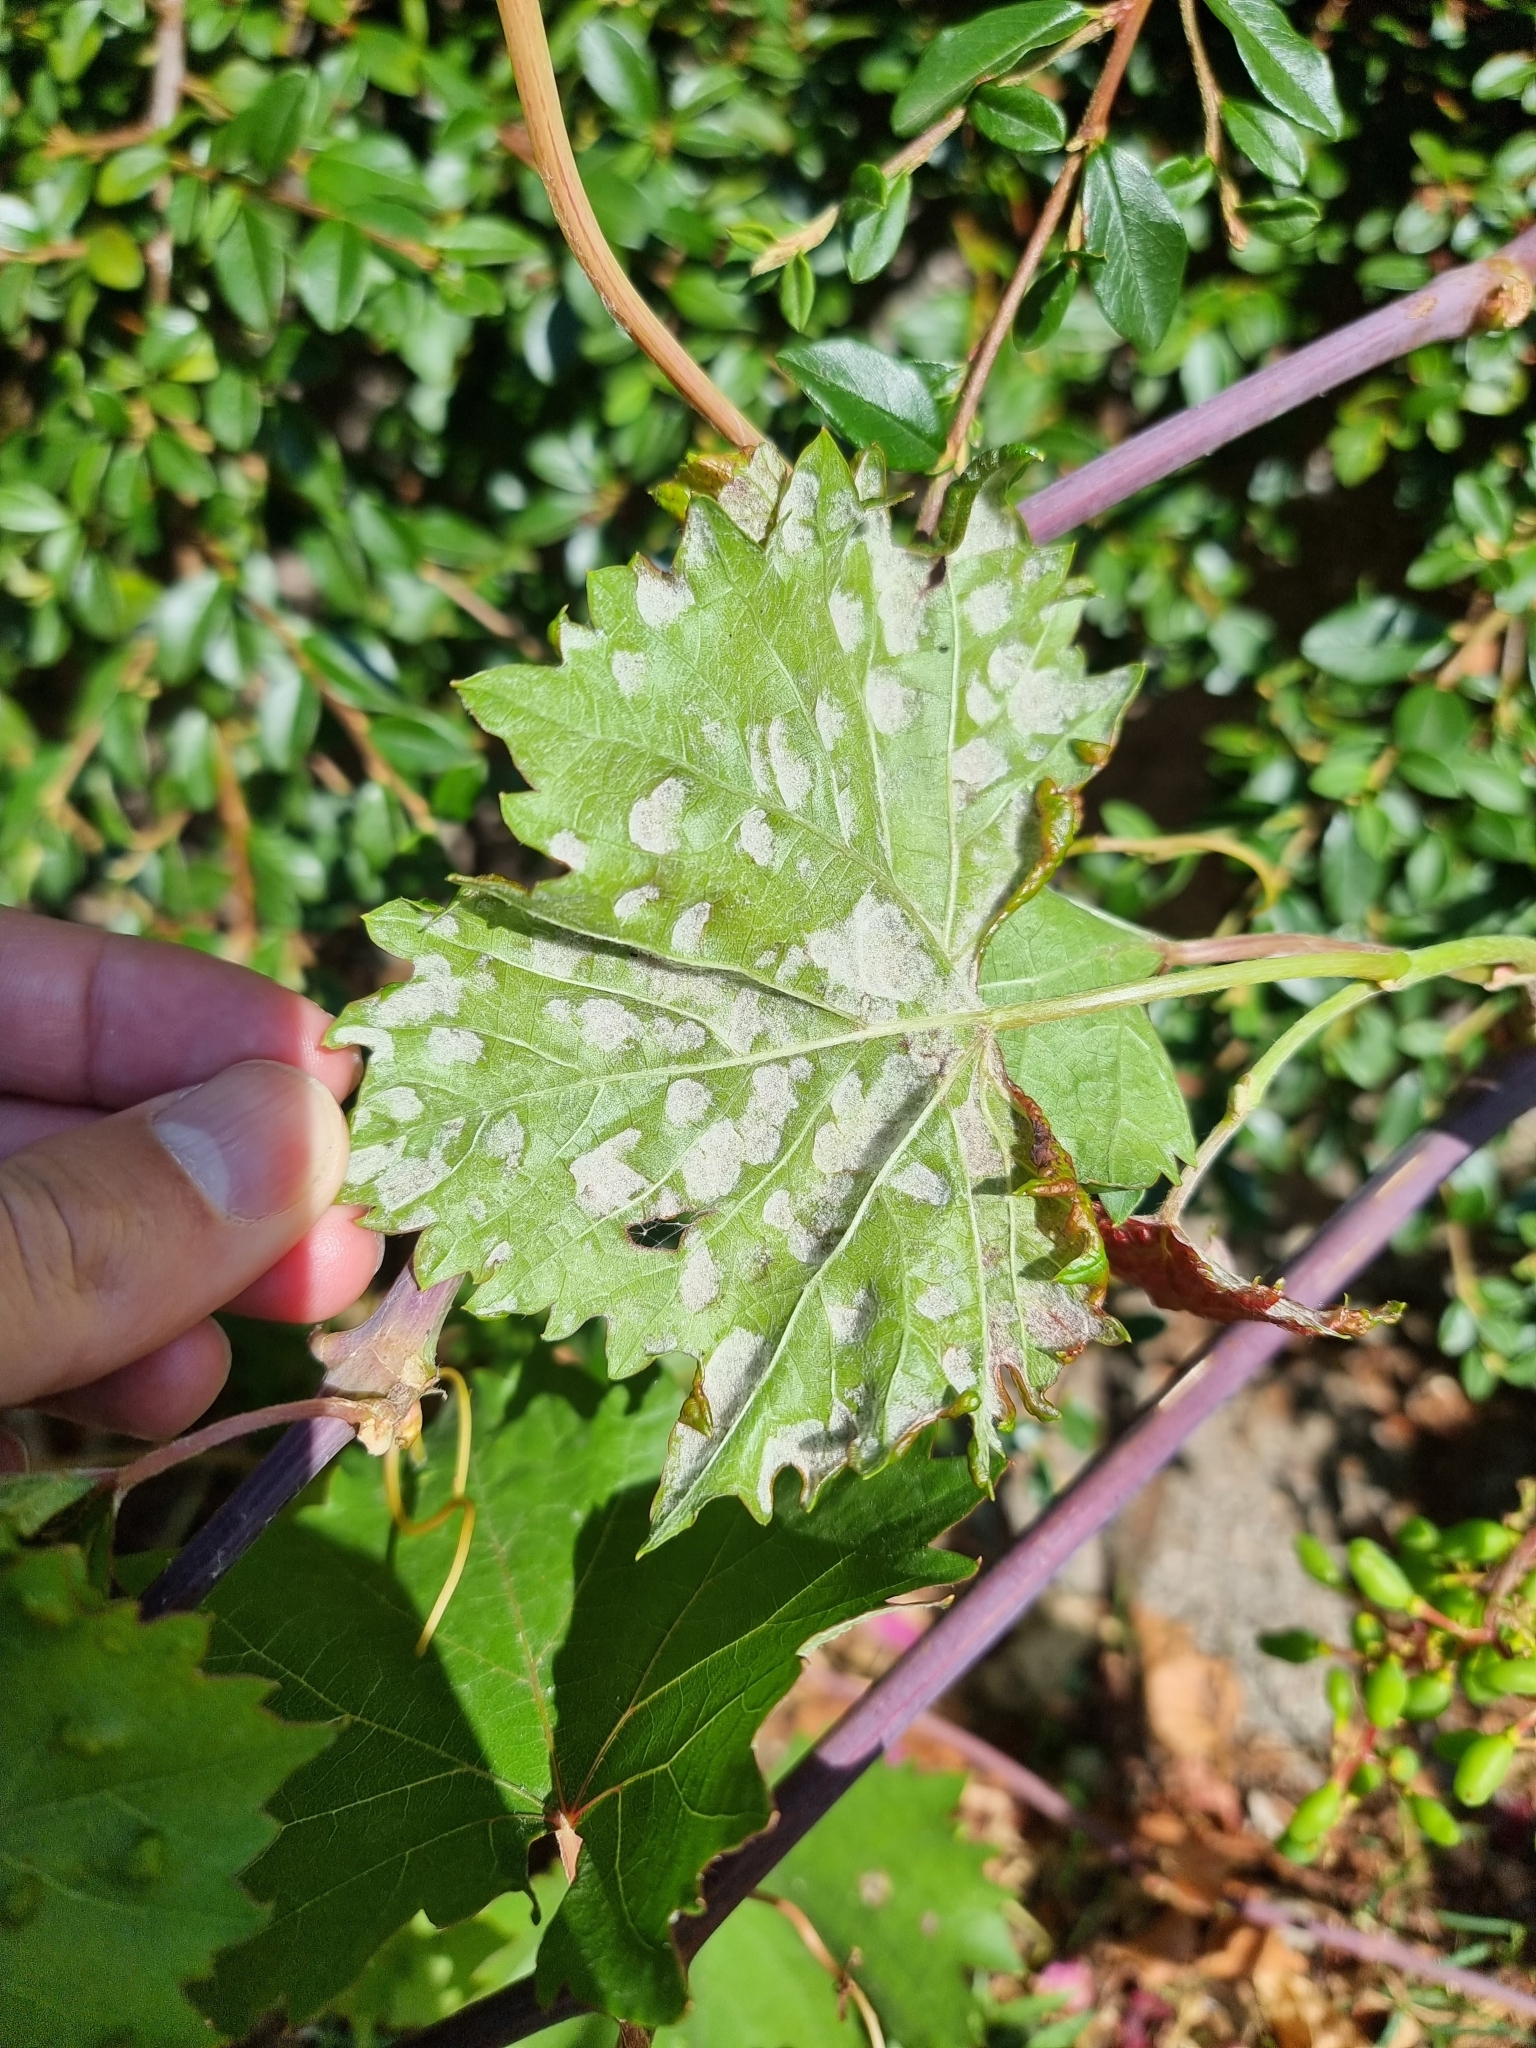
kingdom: Animalia
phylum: Arthropoda
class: Arachnida
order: Trombidiformes
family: Eriophyidae
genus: Colomerus
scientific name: Colomerus vitis
